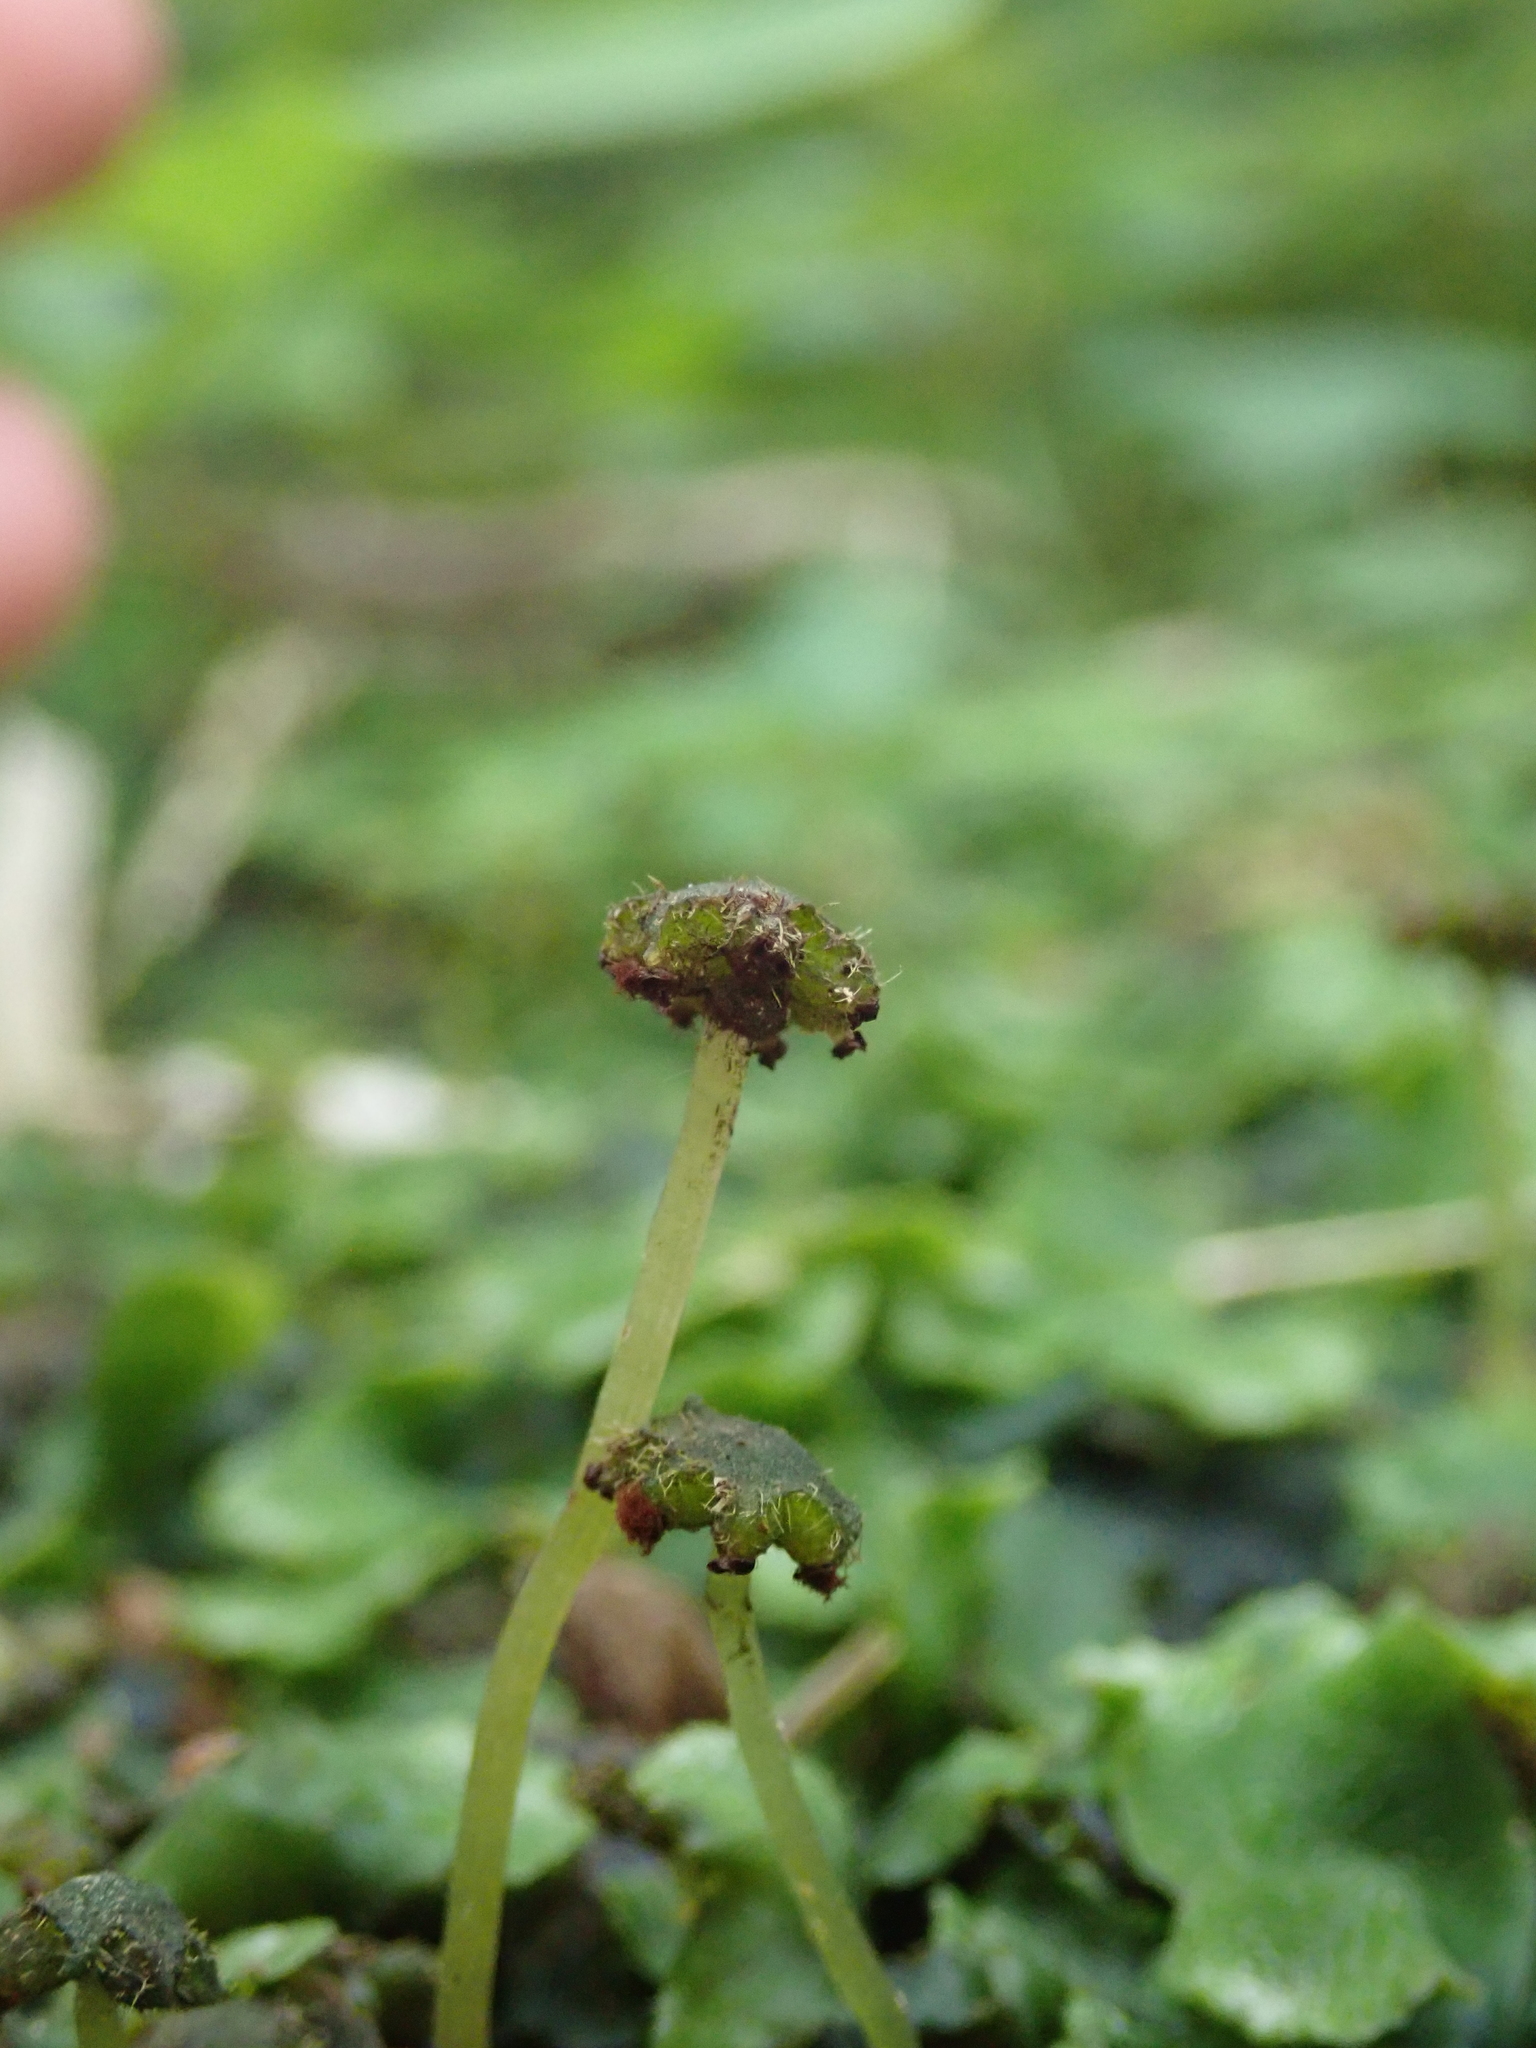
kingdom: Plantae
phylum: Marchantiophyta
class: Marchantiopsida
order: Marchantiales
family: Dumortieraceae
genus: Dumortiera
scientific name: Dumortiera hirsuta
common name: Dumortier's liverwort
